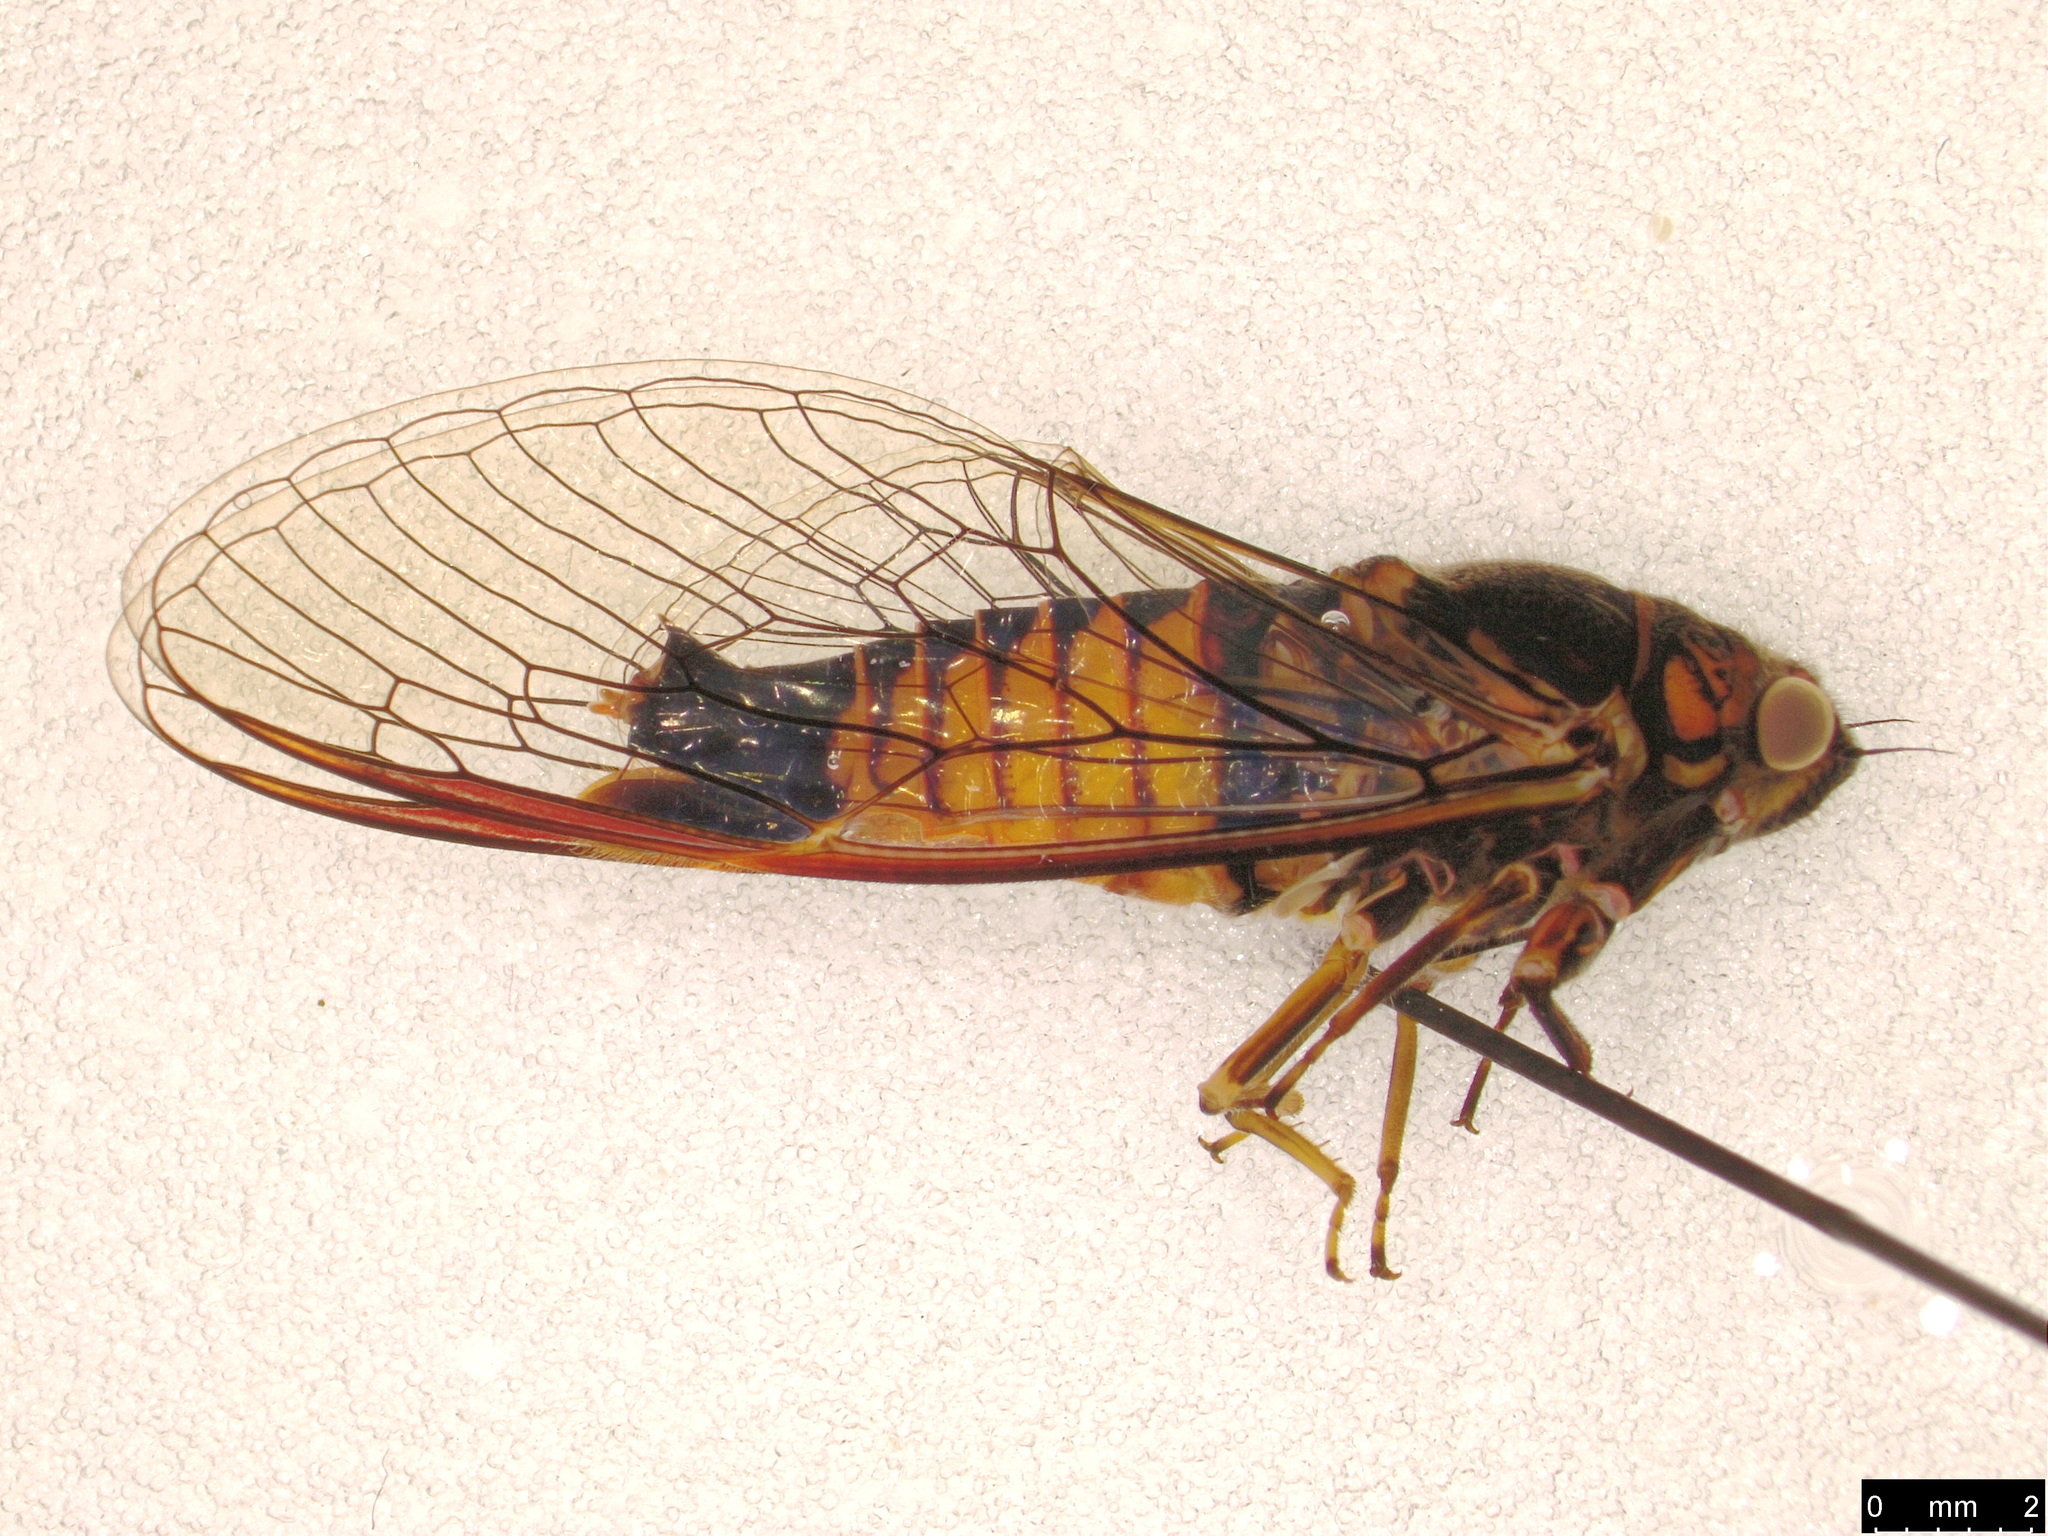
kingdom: Animalia
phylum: Arthropoda
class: Insecta
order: Hemiptera
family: Cicadidae
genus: Yoyetta
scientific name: Yoyetta nigrimontana
